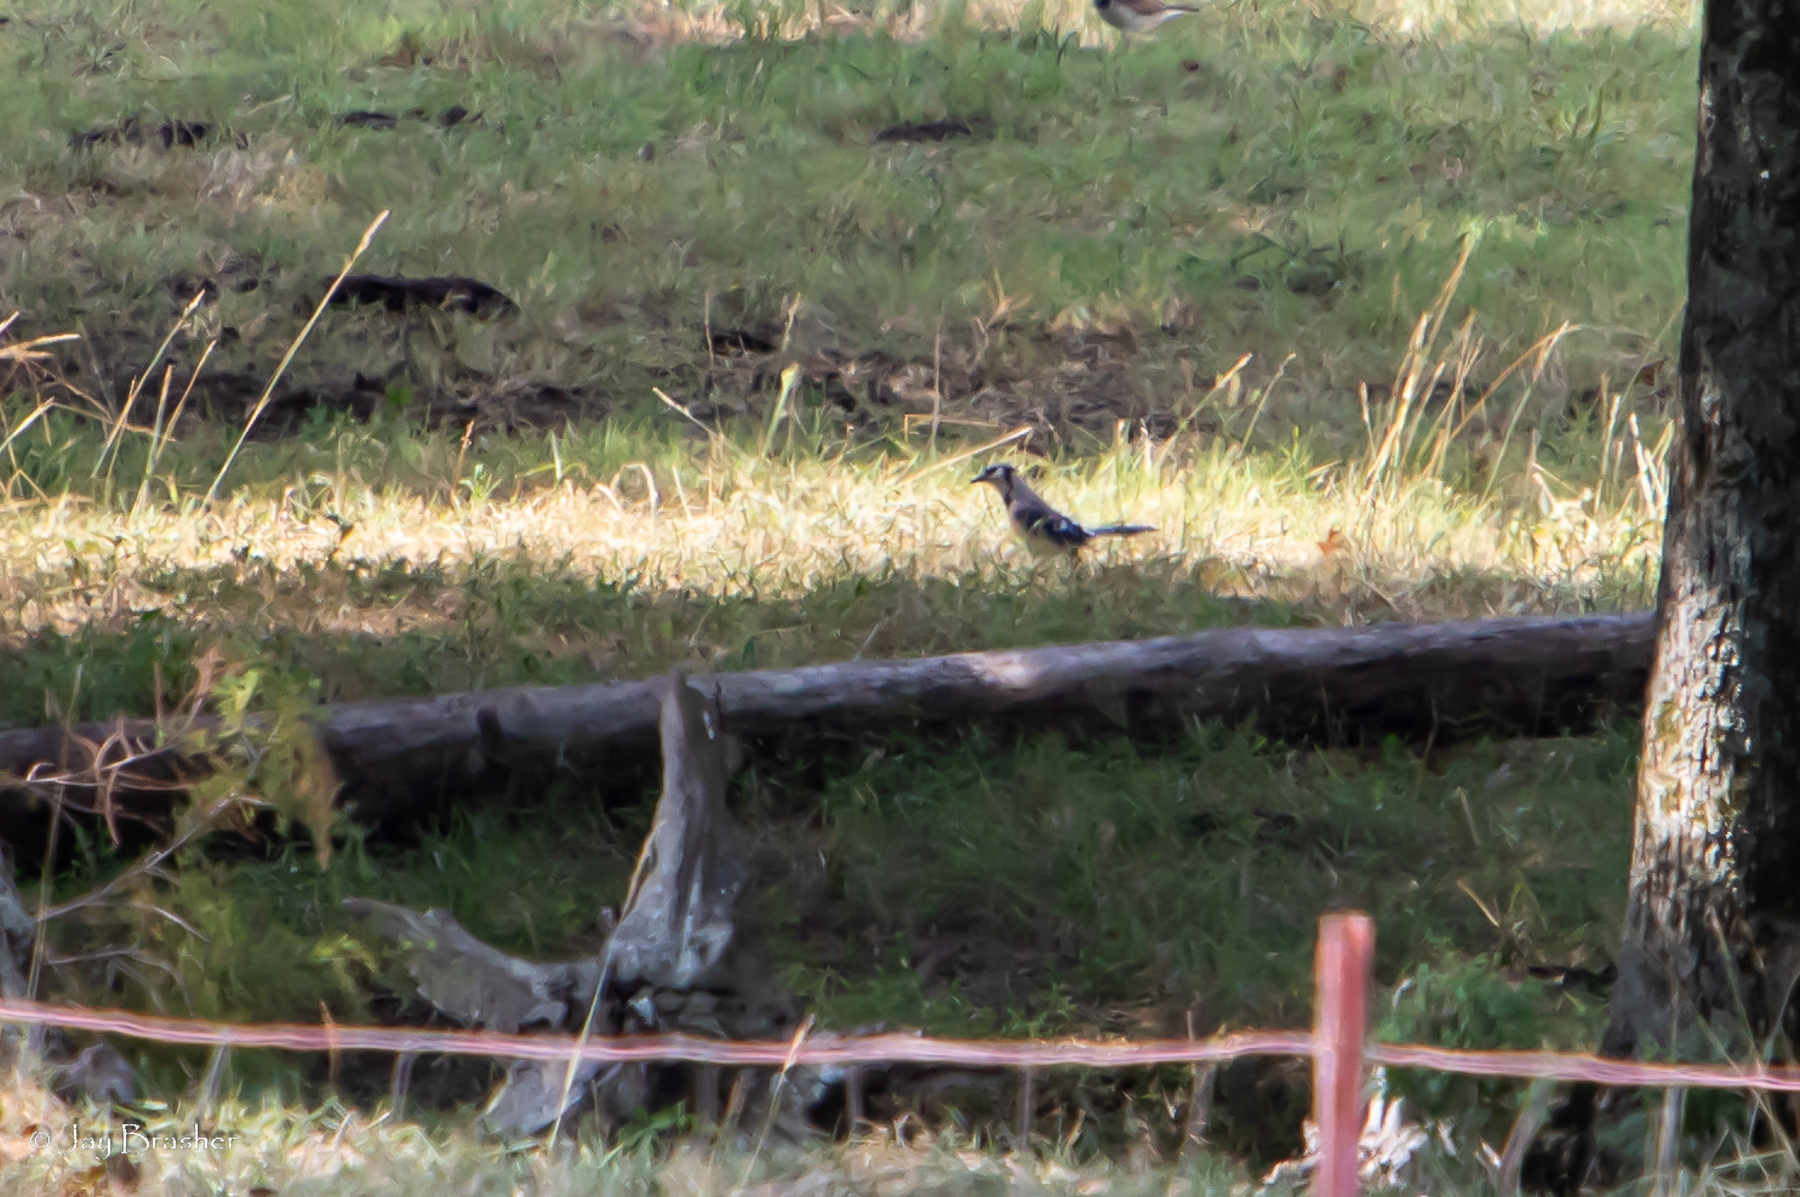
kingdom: Animalia
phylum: Chordata
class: Aves
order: Passeriformes
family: Corvidae
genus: Cyanocitta
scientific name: Cyanocitta cristata
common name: Blue jay
